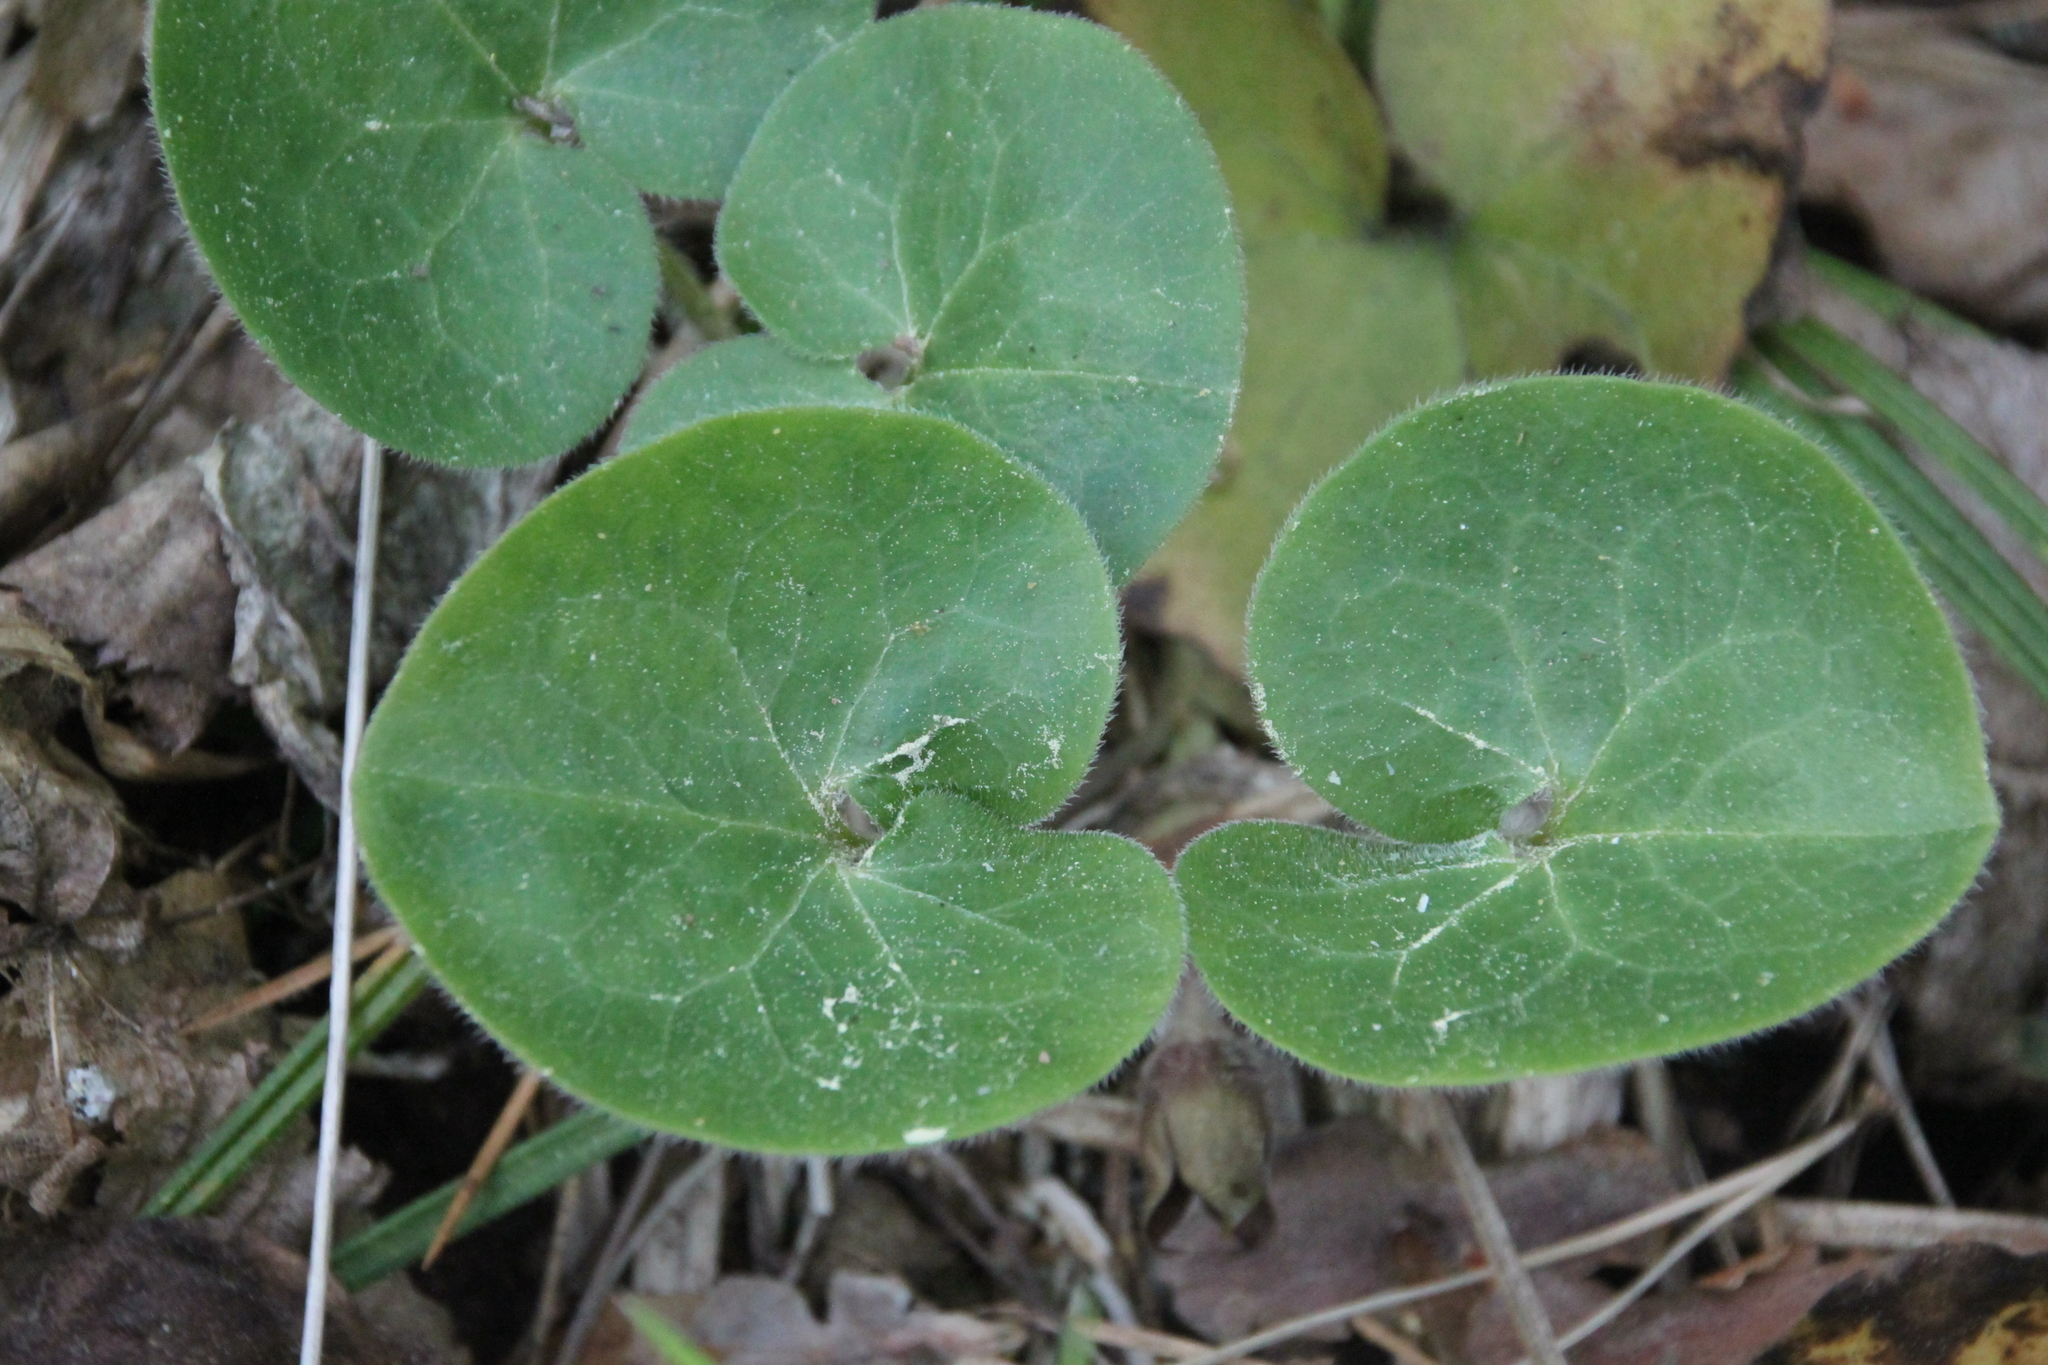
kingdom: Plantae
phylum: Tracheophyta
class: Magnoliopsida
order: Piperales
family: Aristolochiaceae
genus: Asarum
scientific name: Asarum europaeum
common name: Asarabacca
